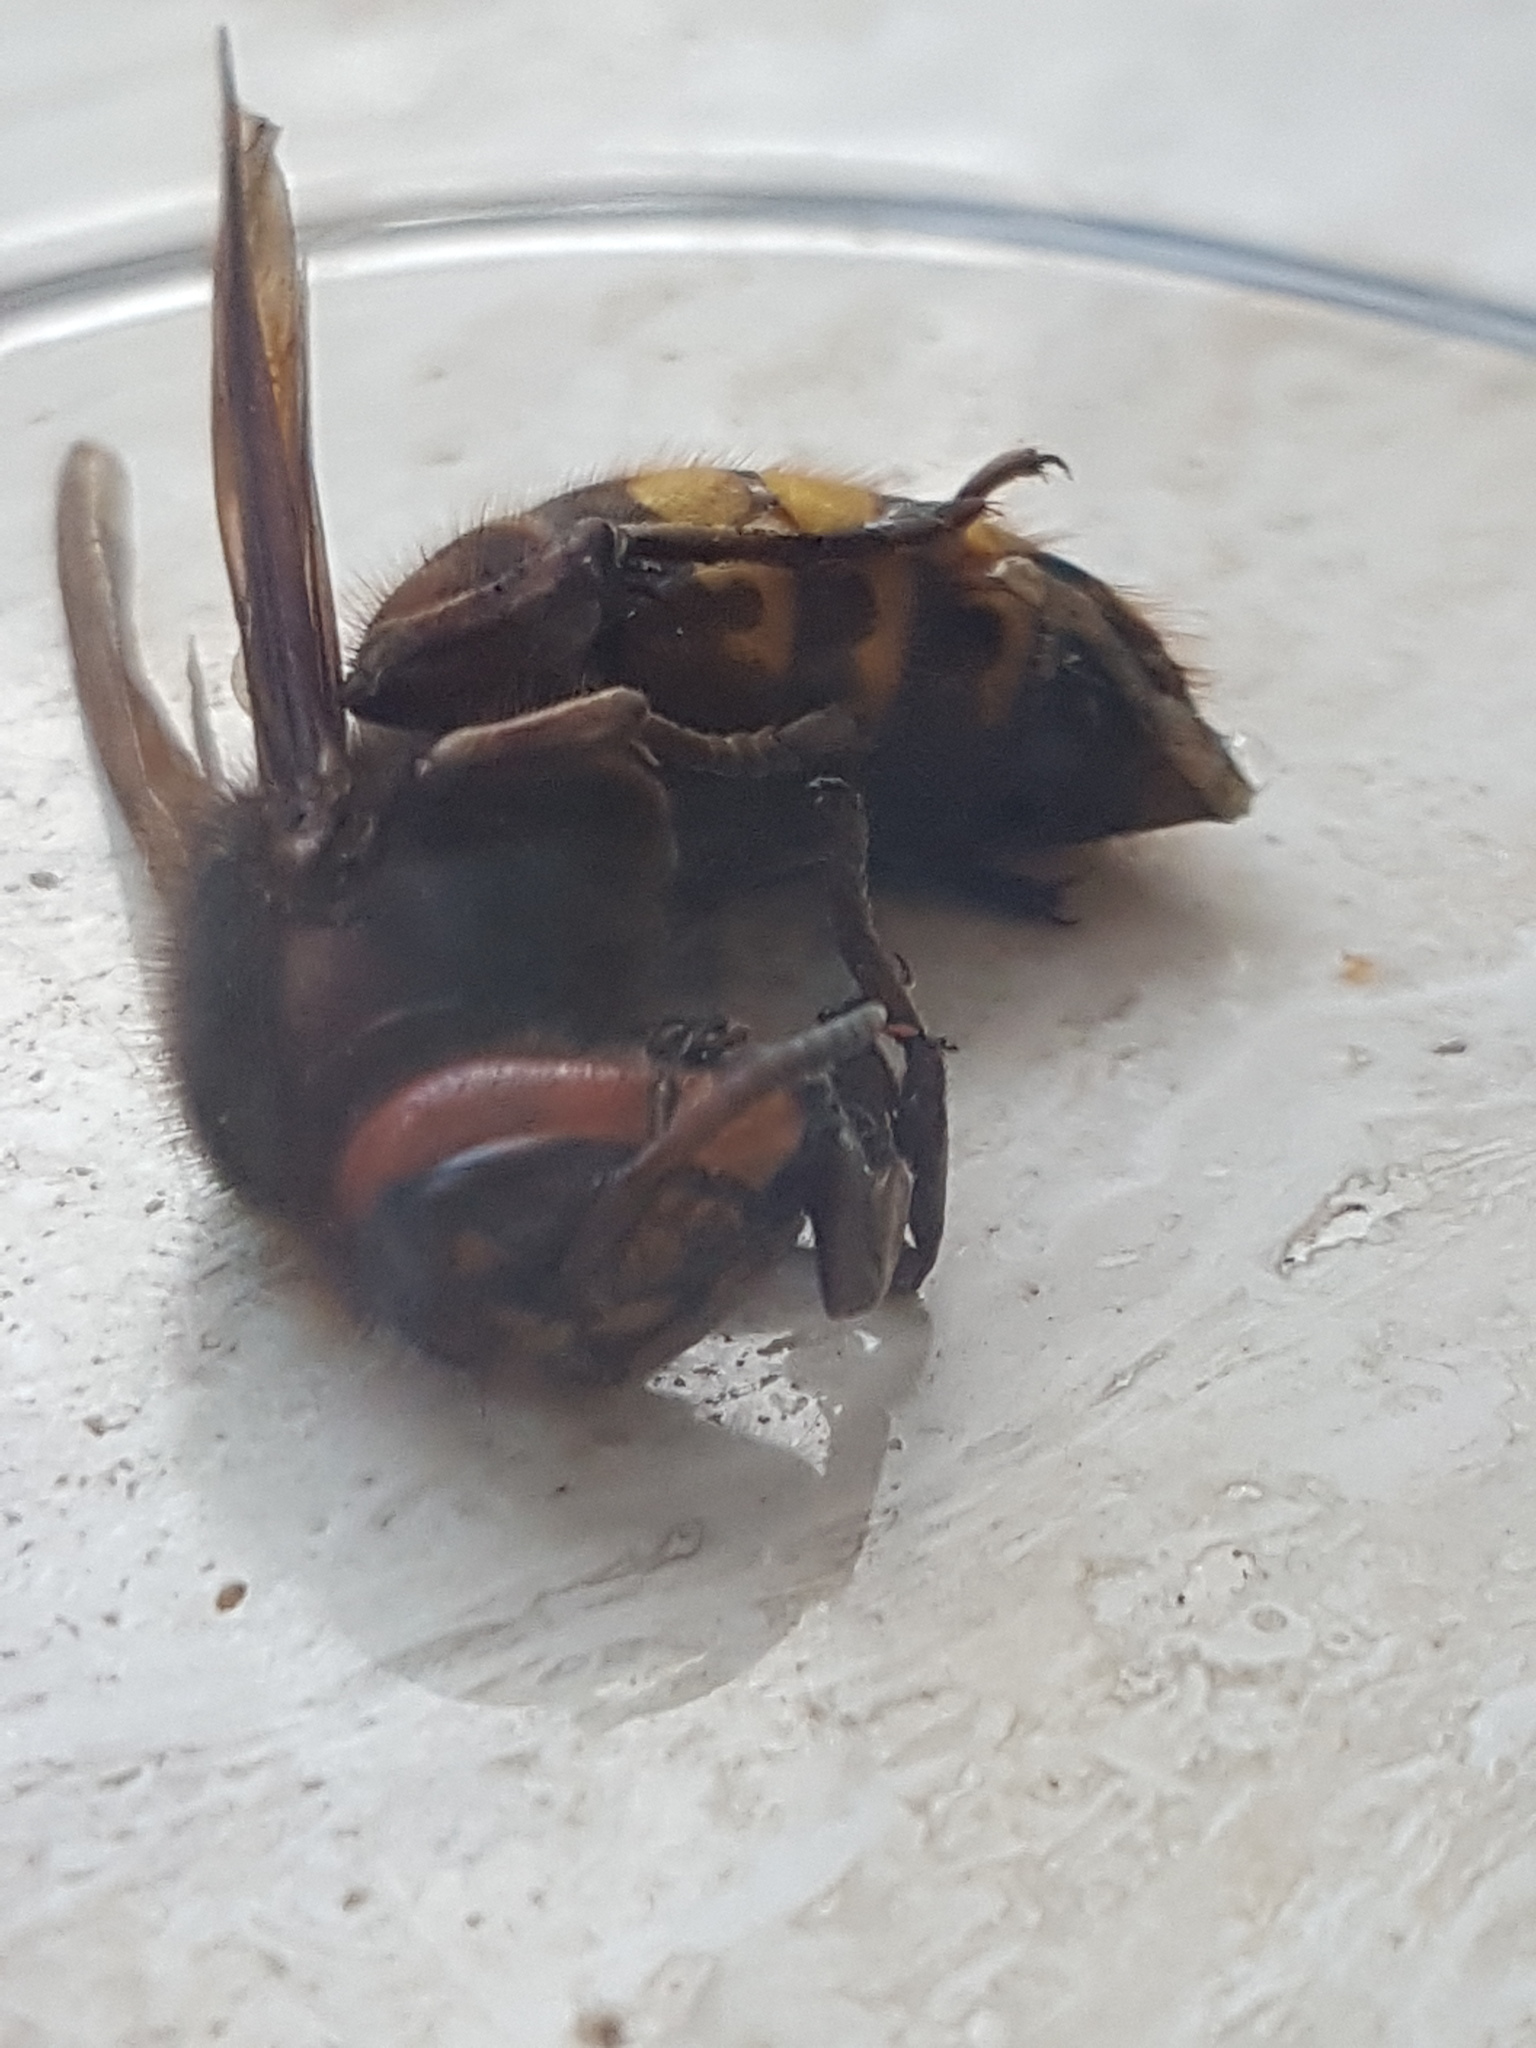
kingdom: Animalia
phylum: Arthropoda
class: Insecta
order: Hymenoptera
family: Vespidae
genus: Vespa
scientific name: Vespa crabro
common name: Hornet
